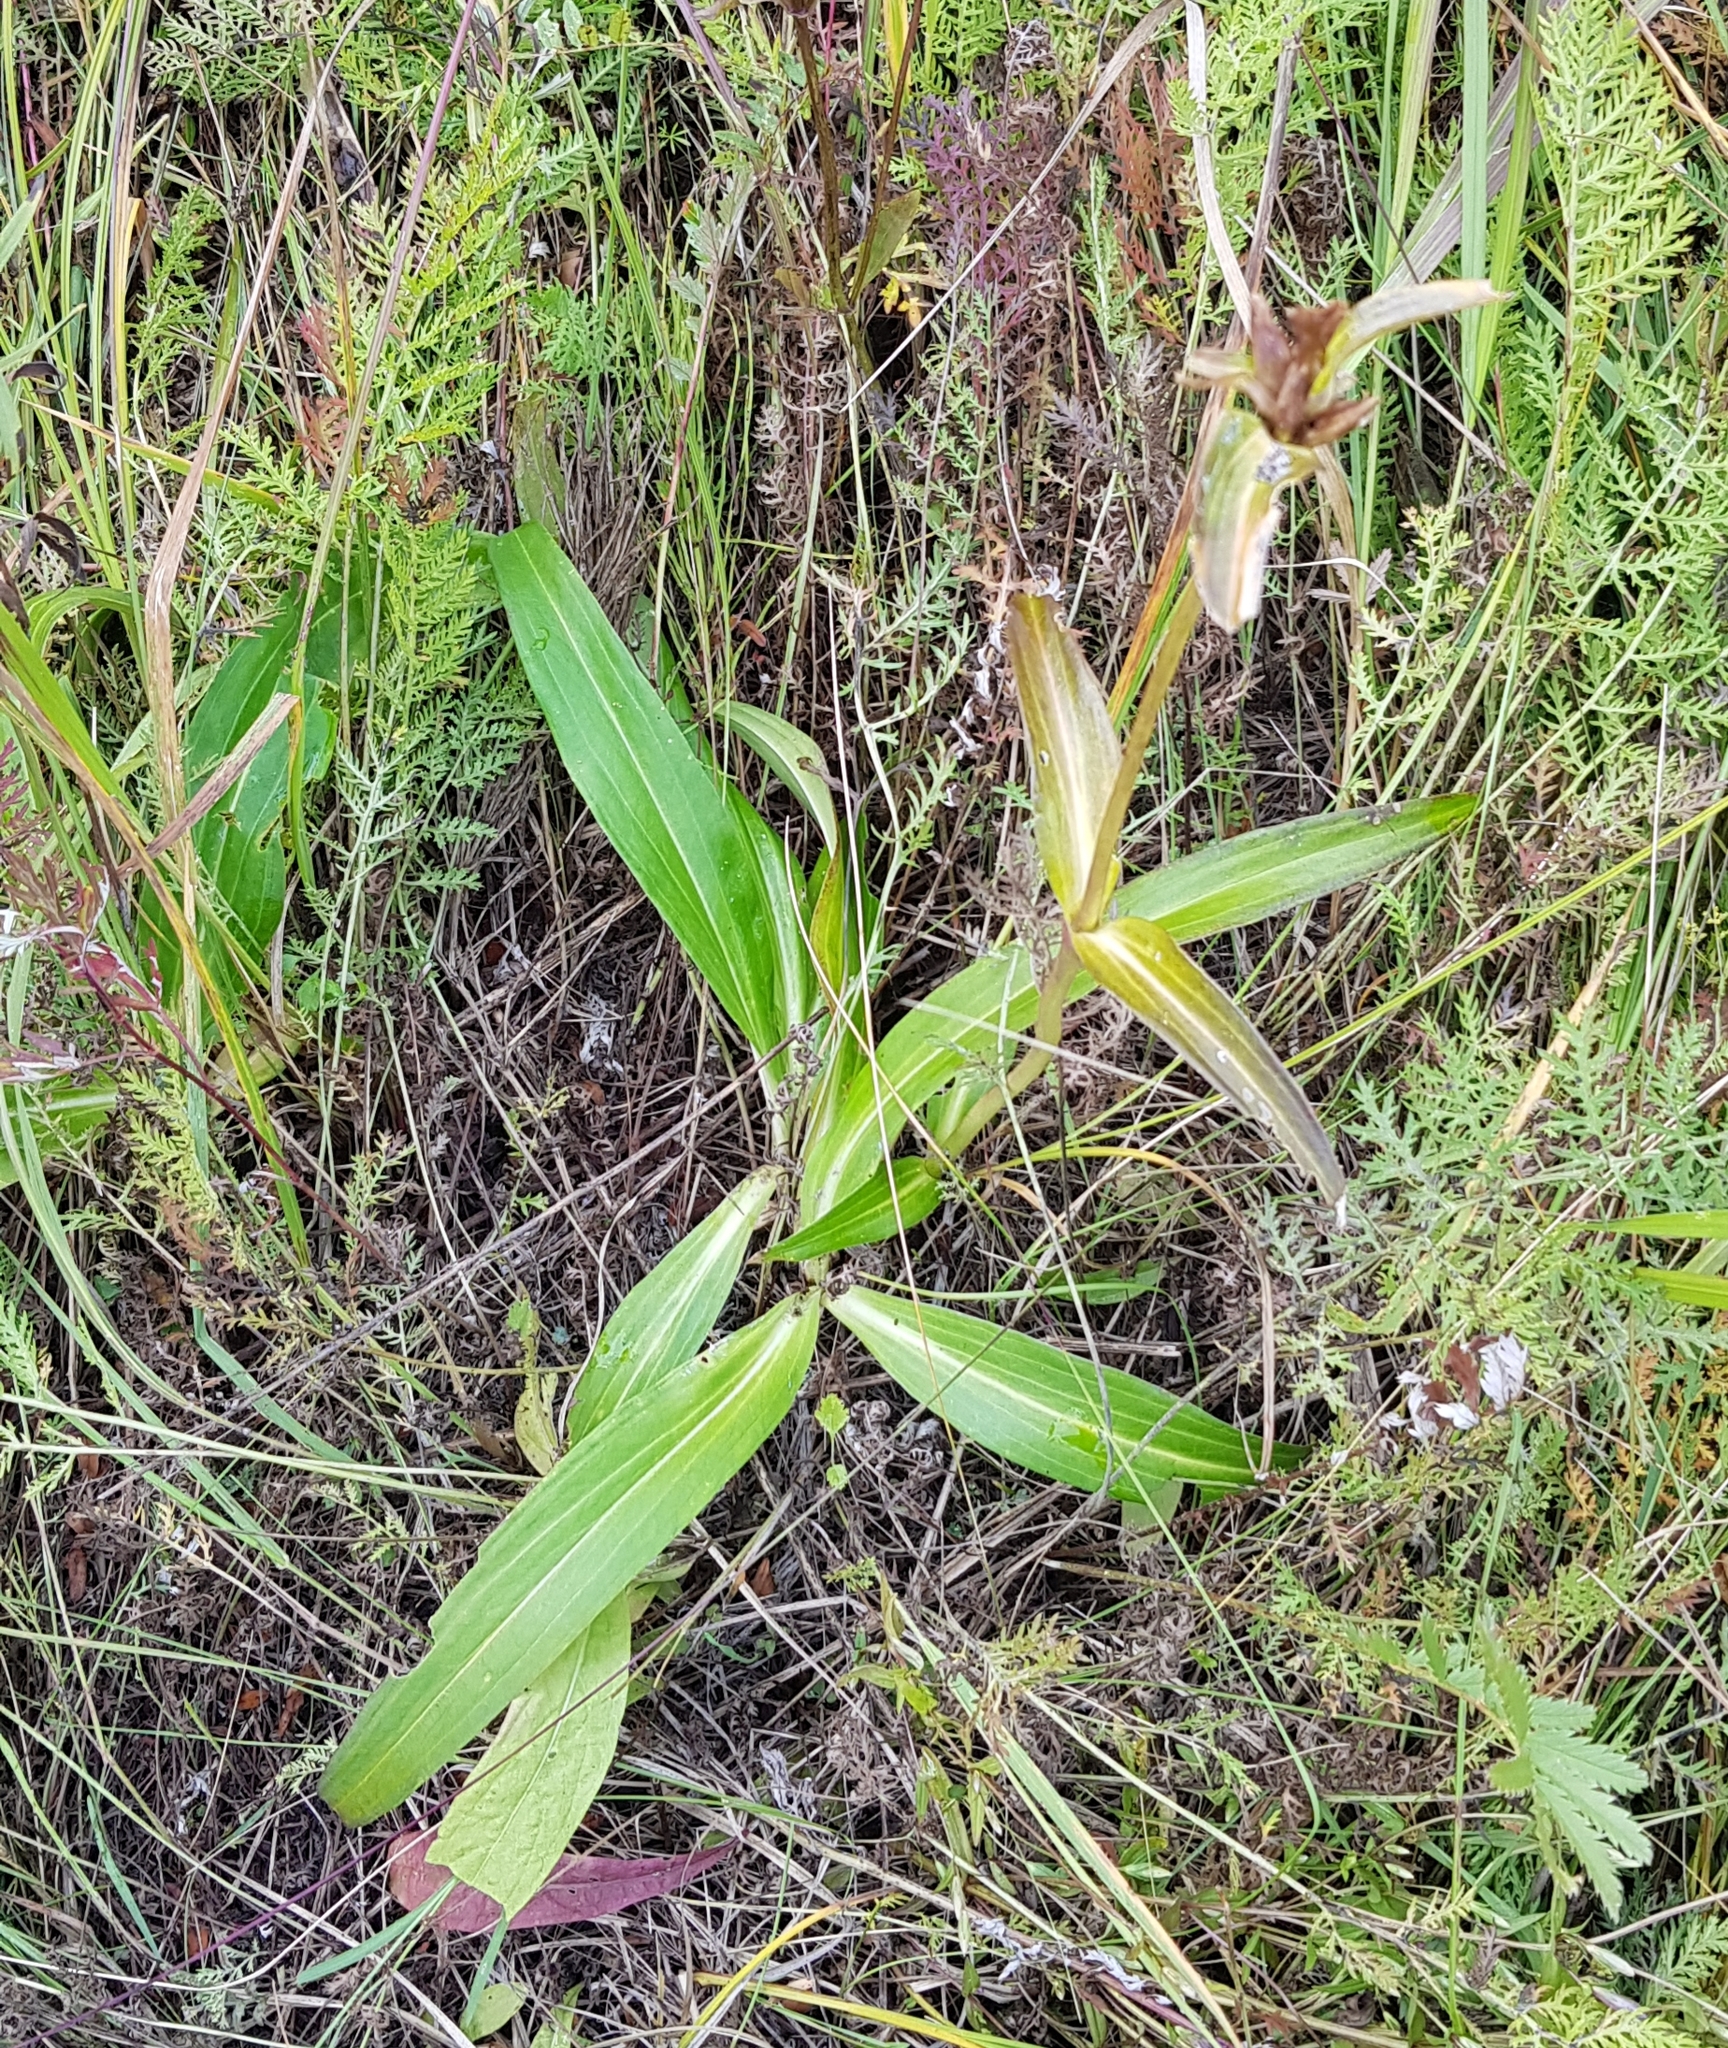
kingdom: Plantae
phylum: Tracheophyta
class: Magnoliopsida
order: Gentianales
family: Gentianaceae
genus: Gentiana
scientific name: Gentiana macrophylla
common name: Large-leaf gentian
